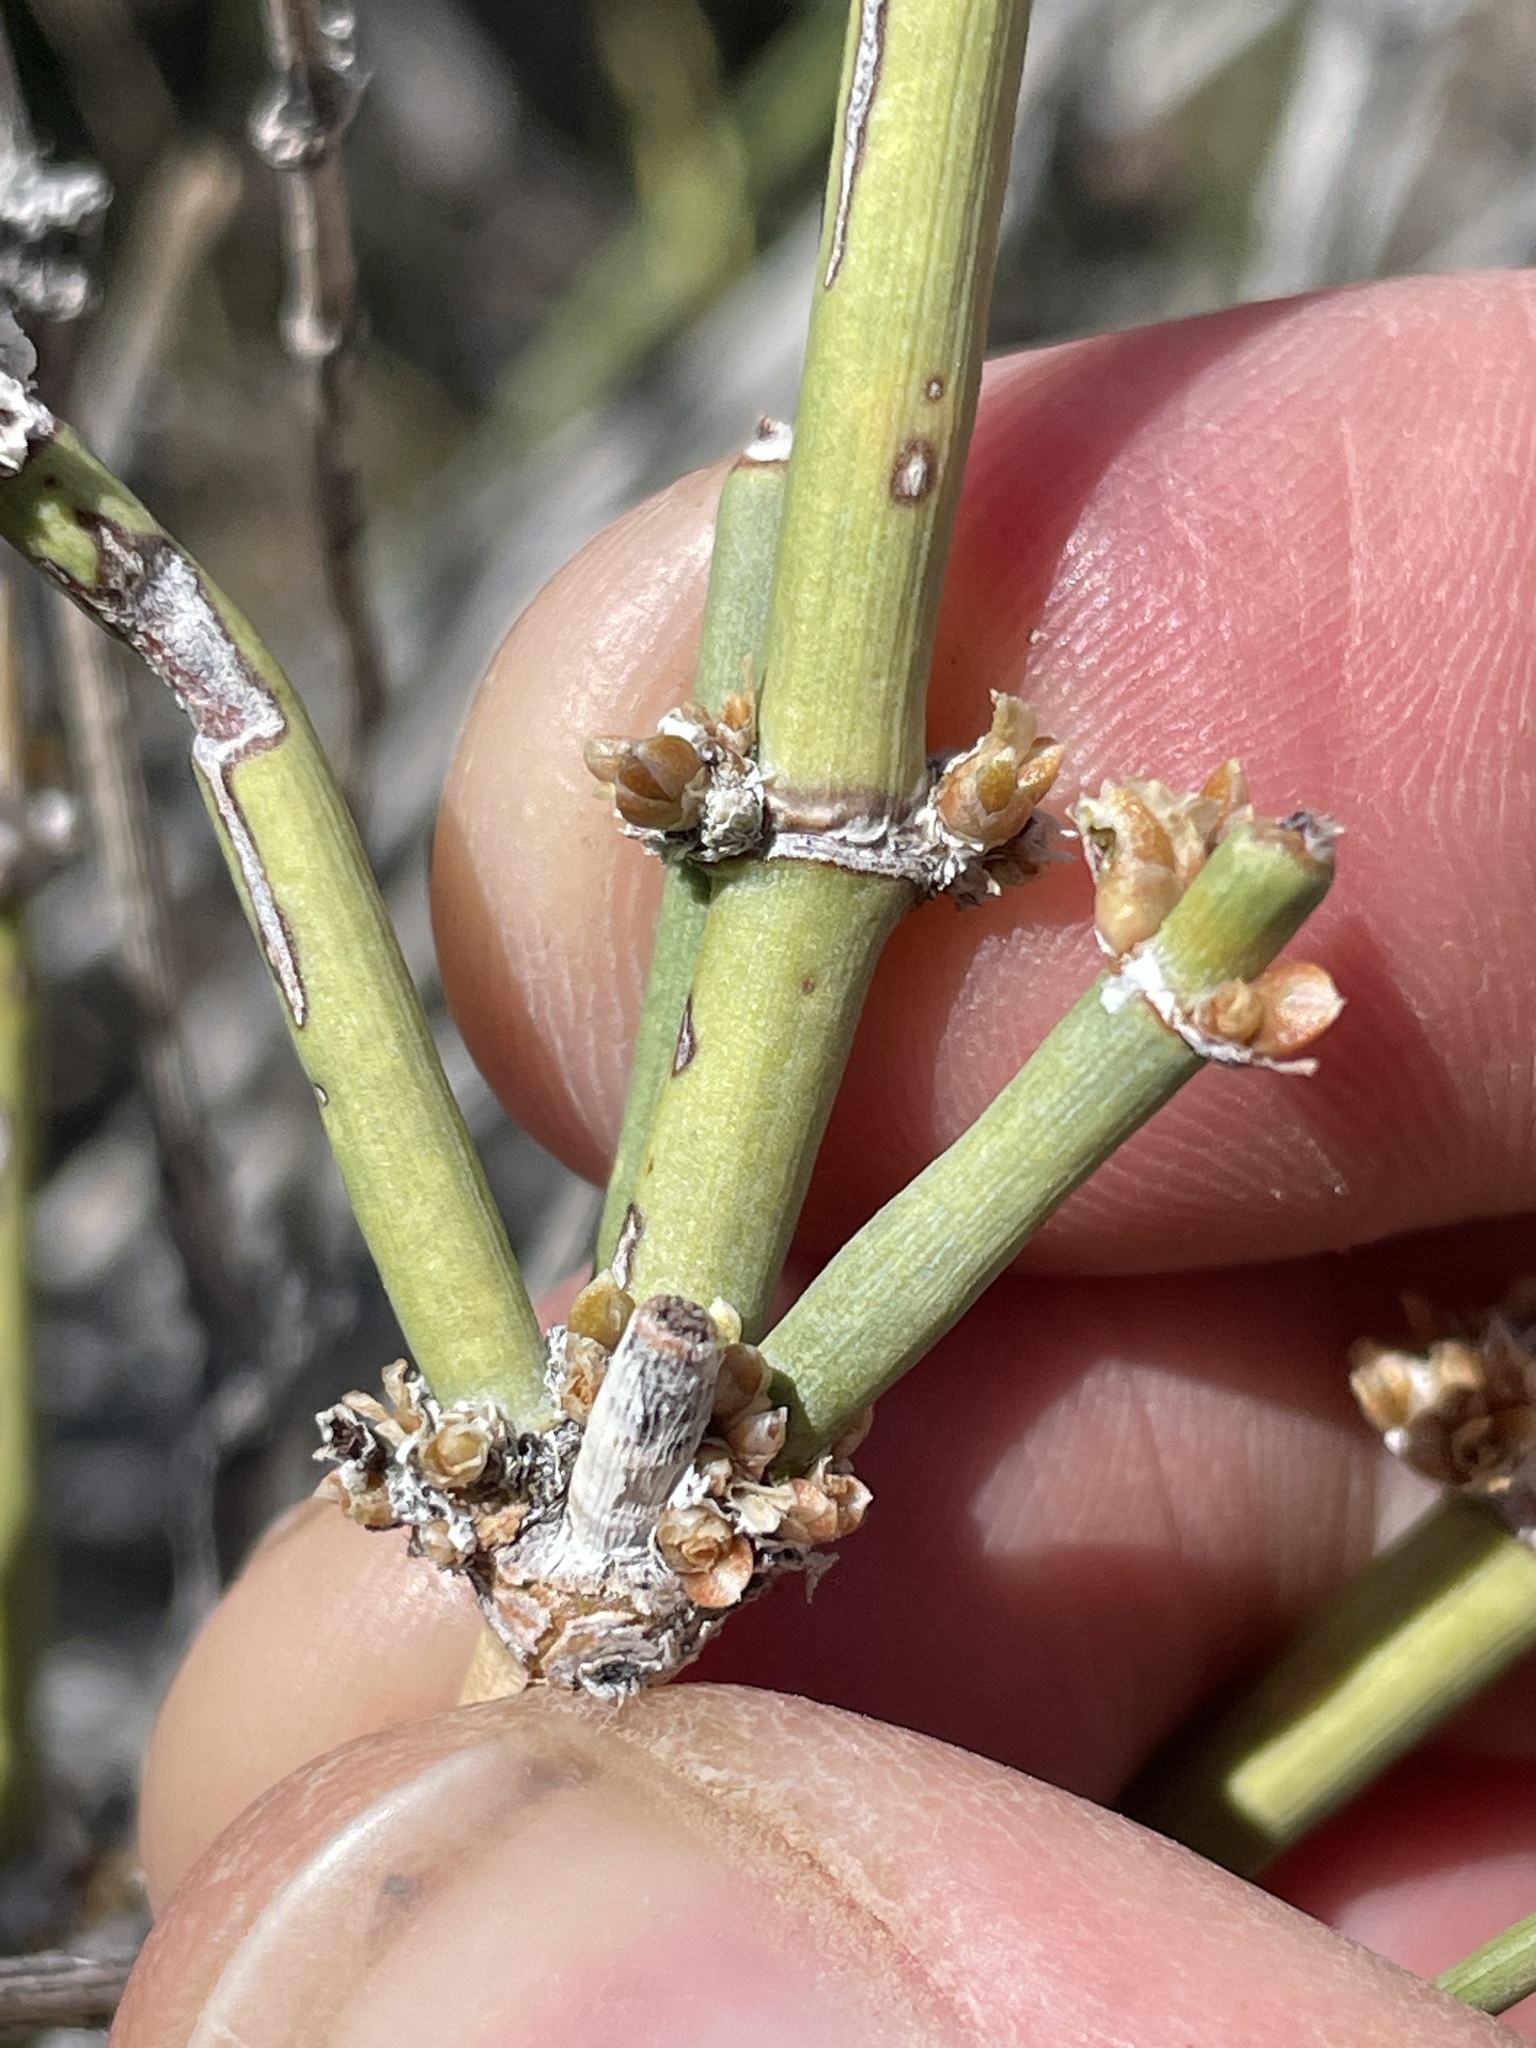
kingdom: Plantae
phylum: Tracheophyta
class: Gnetopsida
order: Ephedrales
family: Ephedraceae
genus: Ephedra
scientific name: Ephedra nevadensis
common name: Gray ephedra
